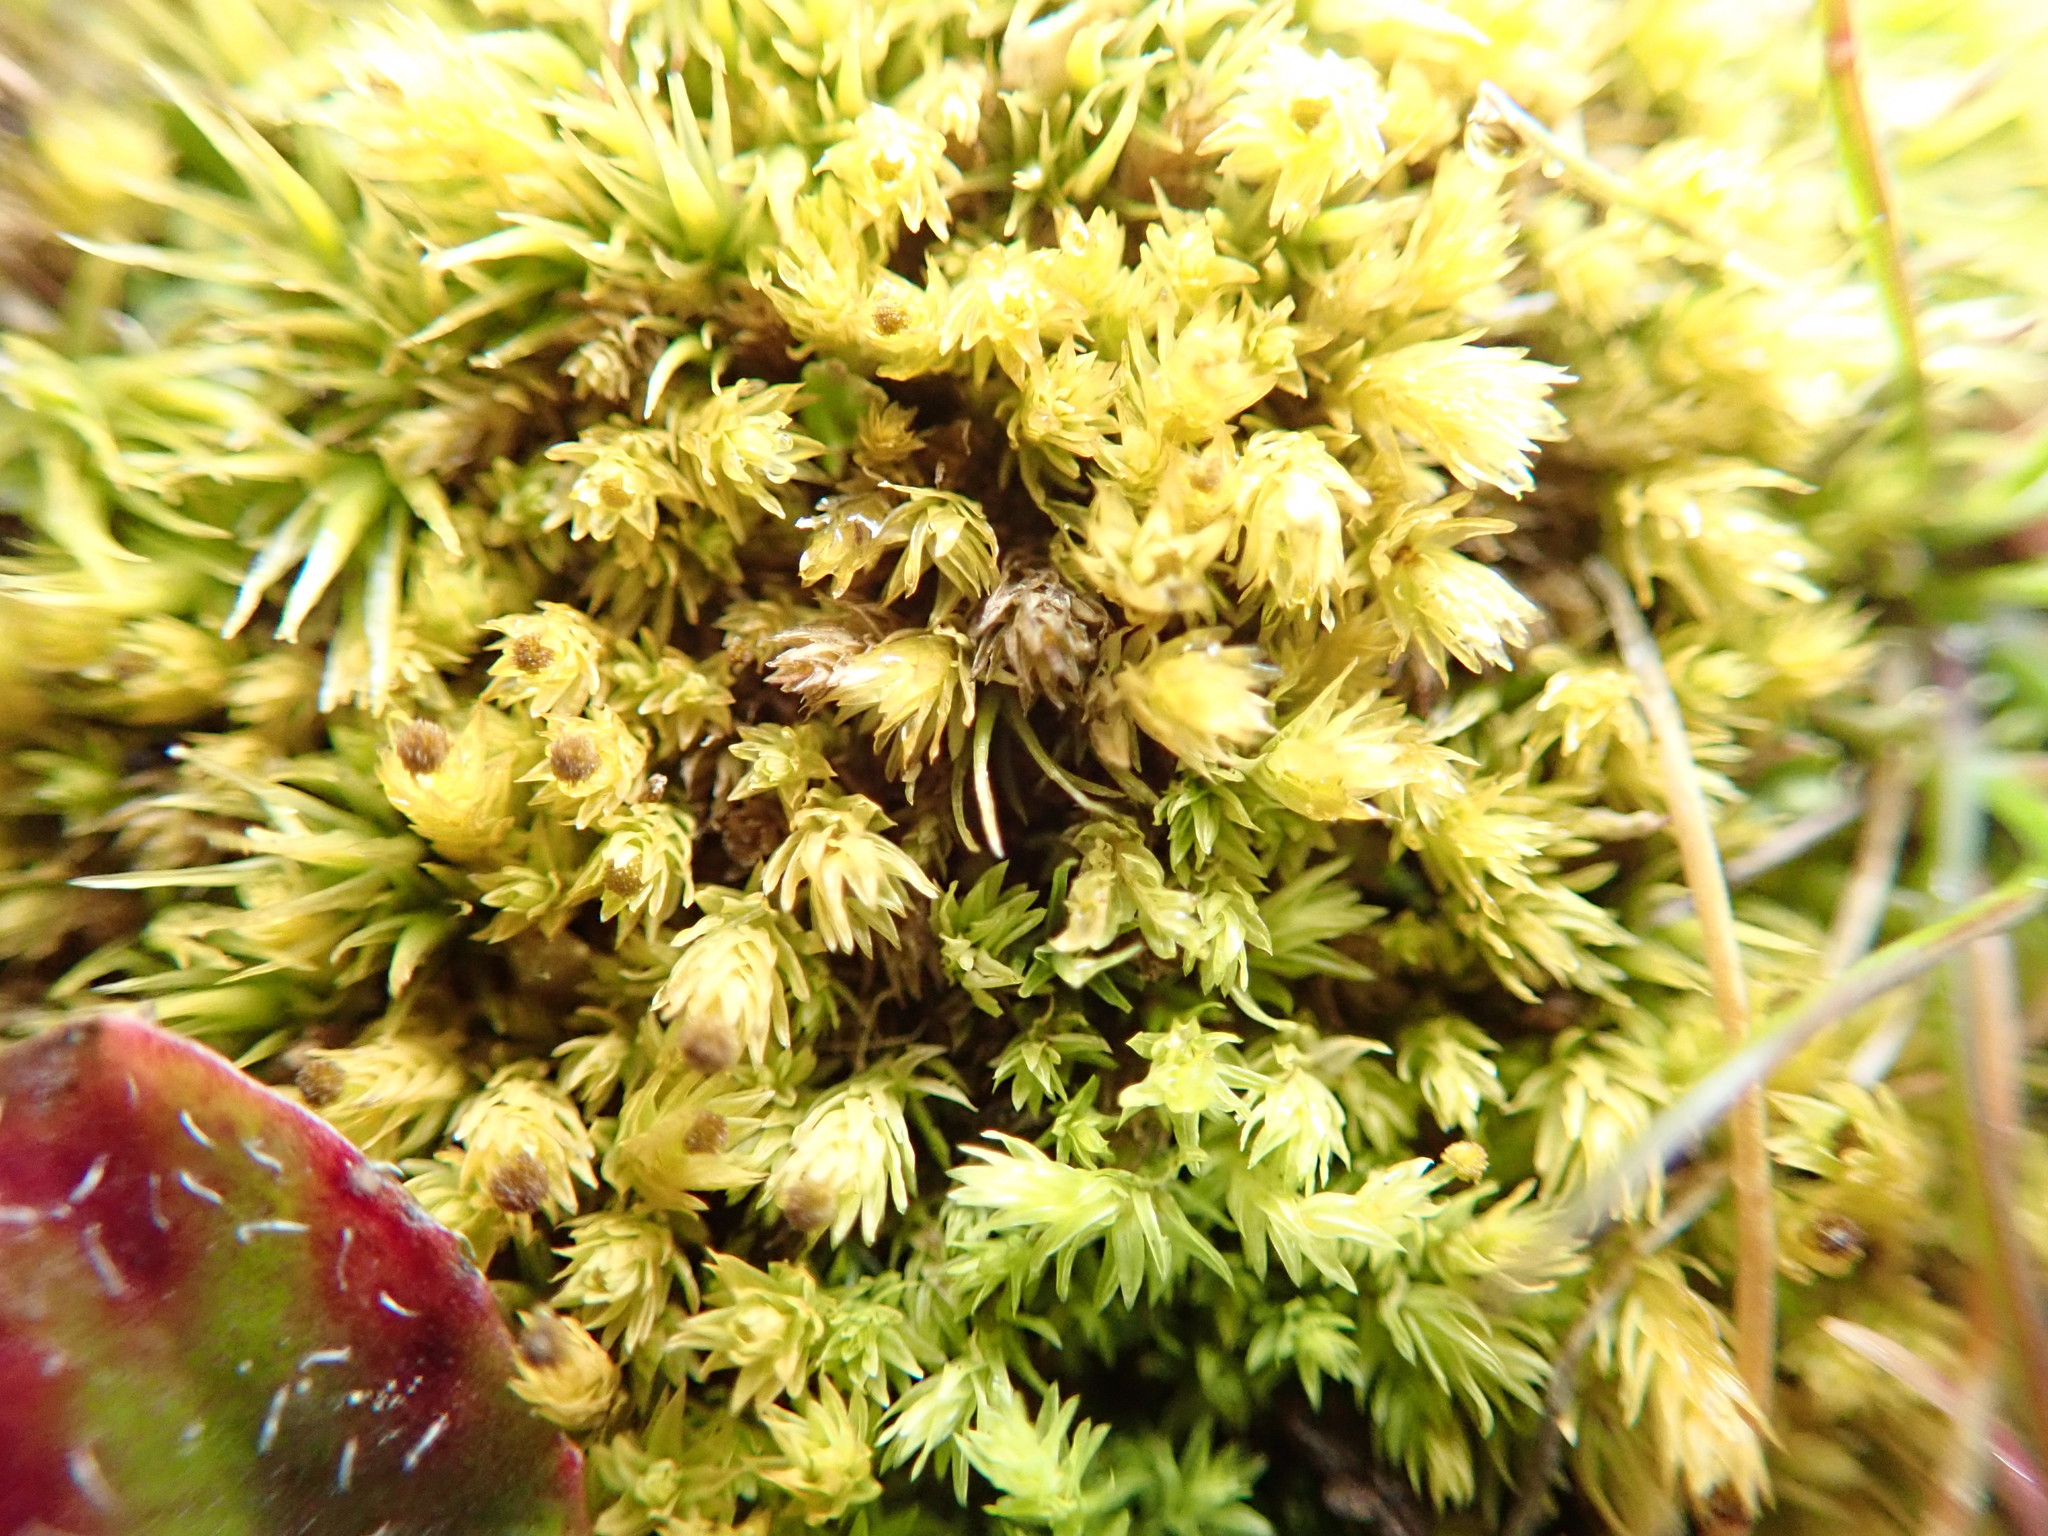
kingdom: Plantae
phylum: Bryophyta
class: Bryopsida
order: Aulacomniales
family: Aulacomniaceae
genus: Aulacomnium
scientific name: Aulacomnium androgynum
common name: Little groove moss
